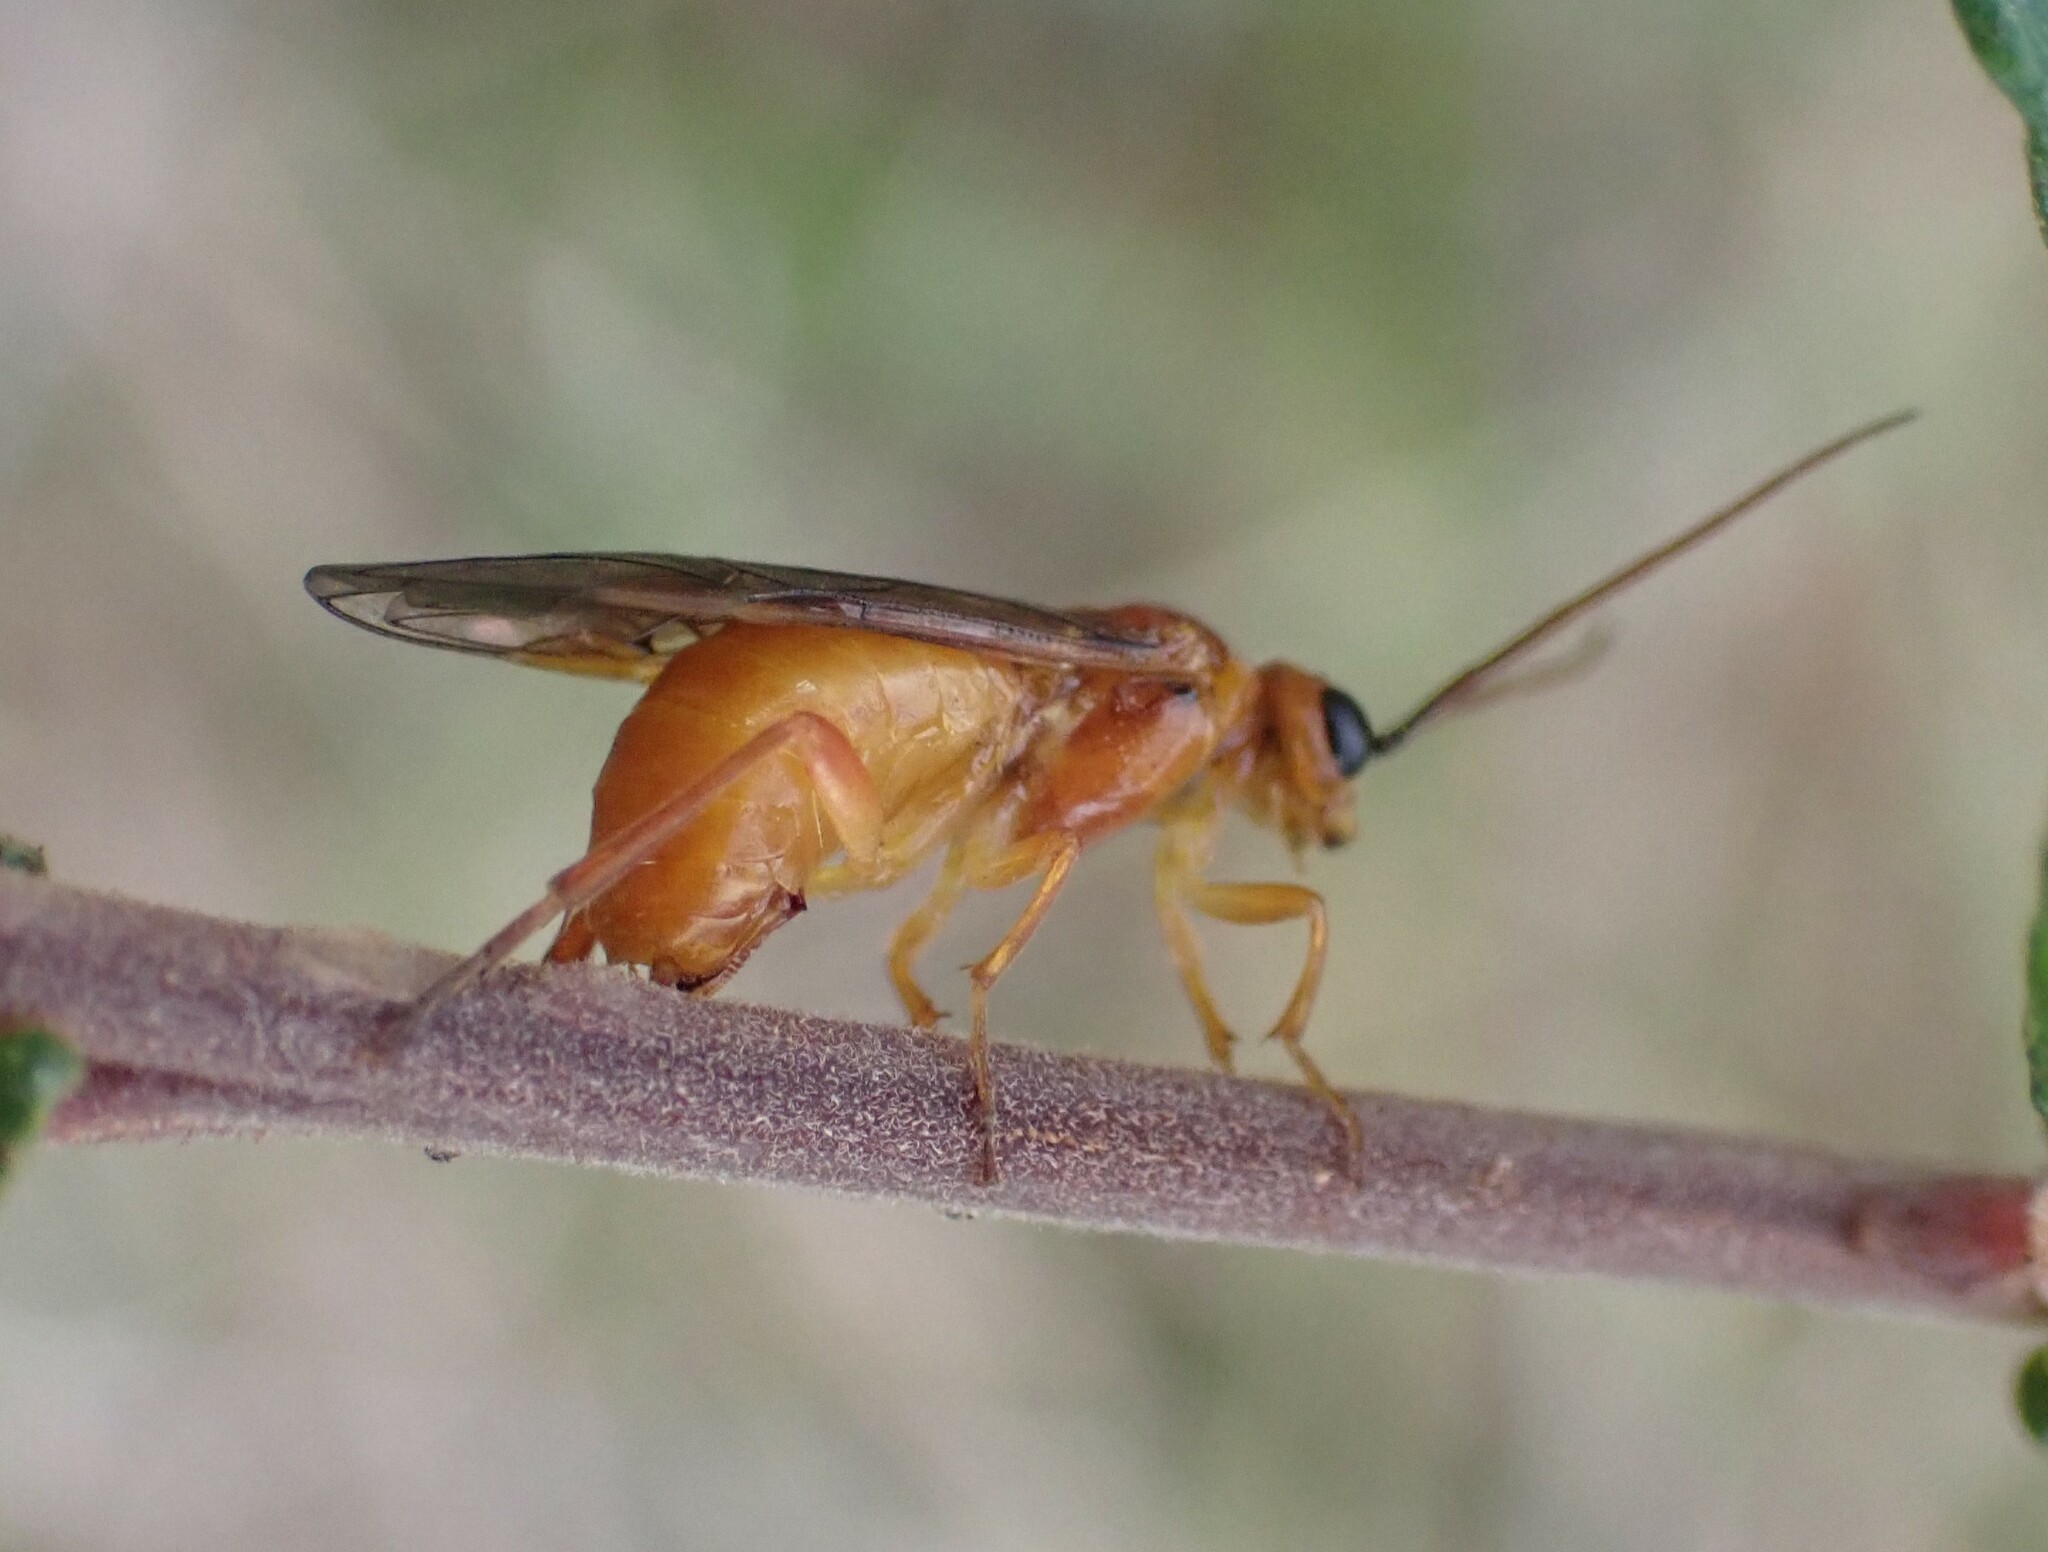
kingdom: Animalia
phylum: Arthropoda
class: Insecta
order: Hymenoptera
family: Tenthredinidae
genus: Nematus
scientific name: Nematus miliaris
